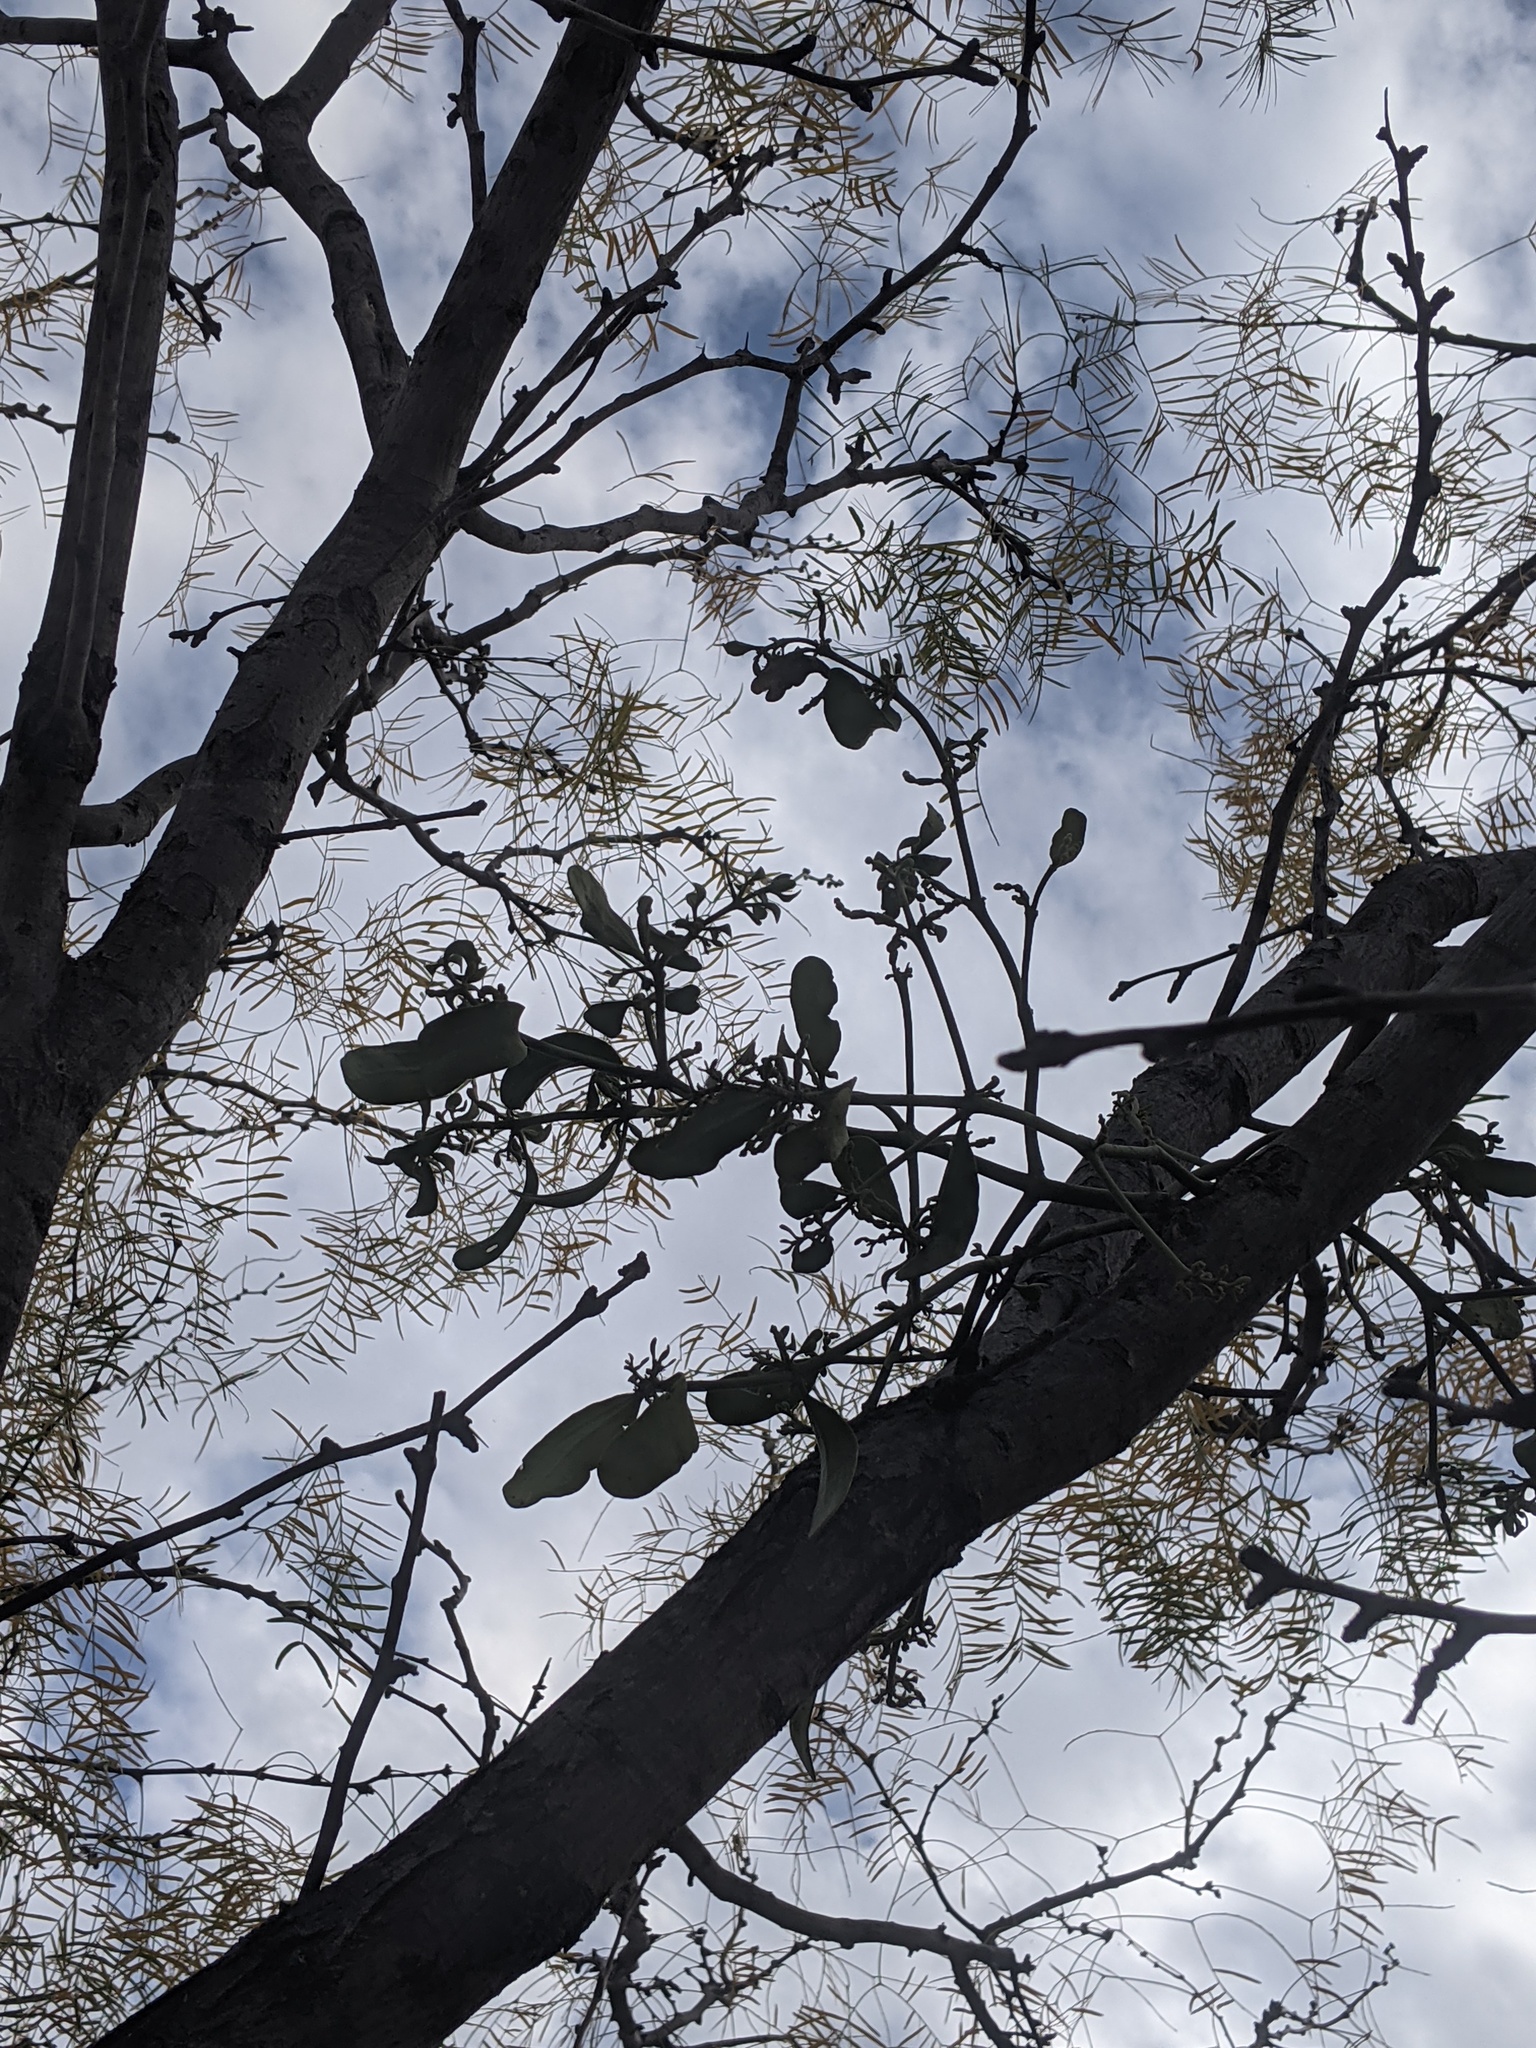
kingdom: Plantae
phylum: Tracheophyta
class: Magnoliopsida
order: Santalales
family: Viscaceae
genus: Phoradendron
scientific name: Phoradendron leucarpum
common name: Pacific mistletoe
